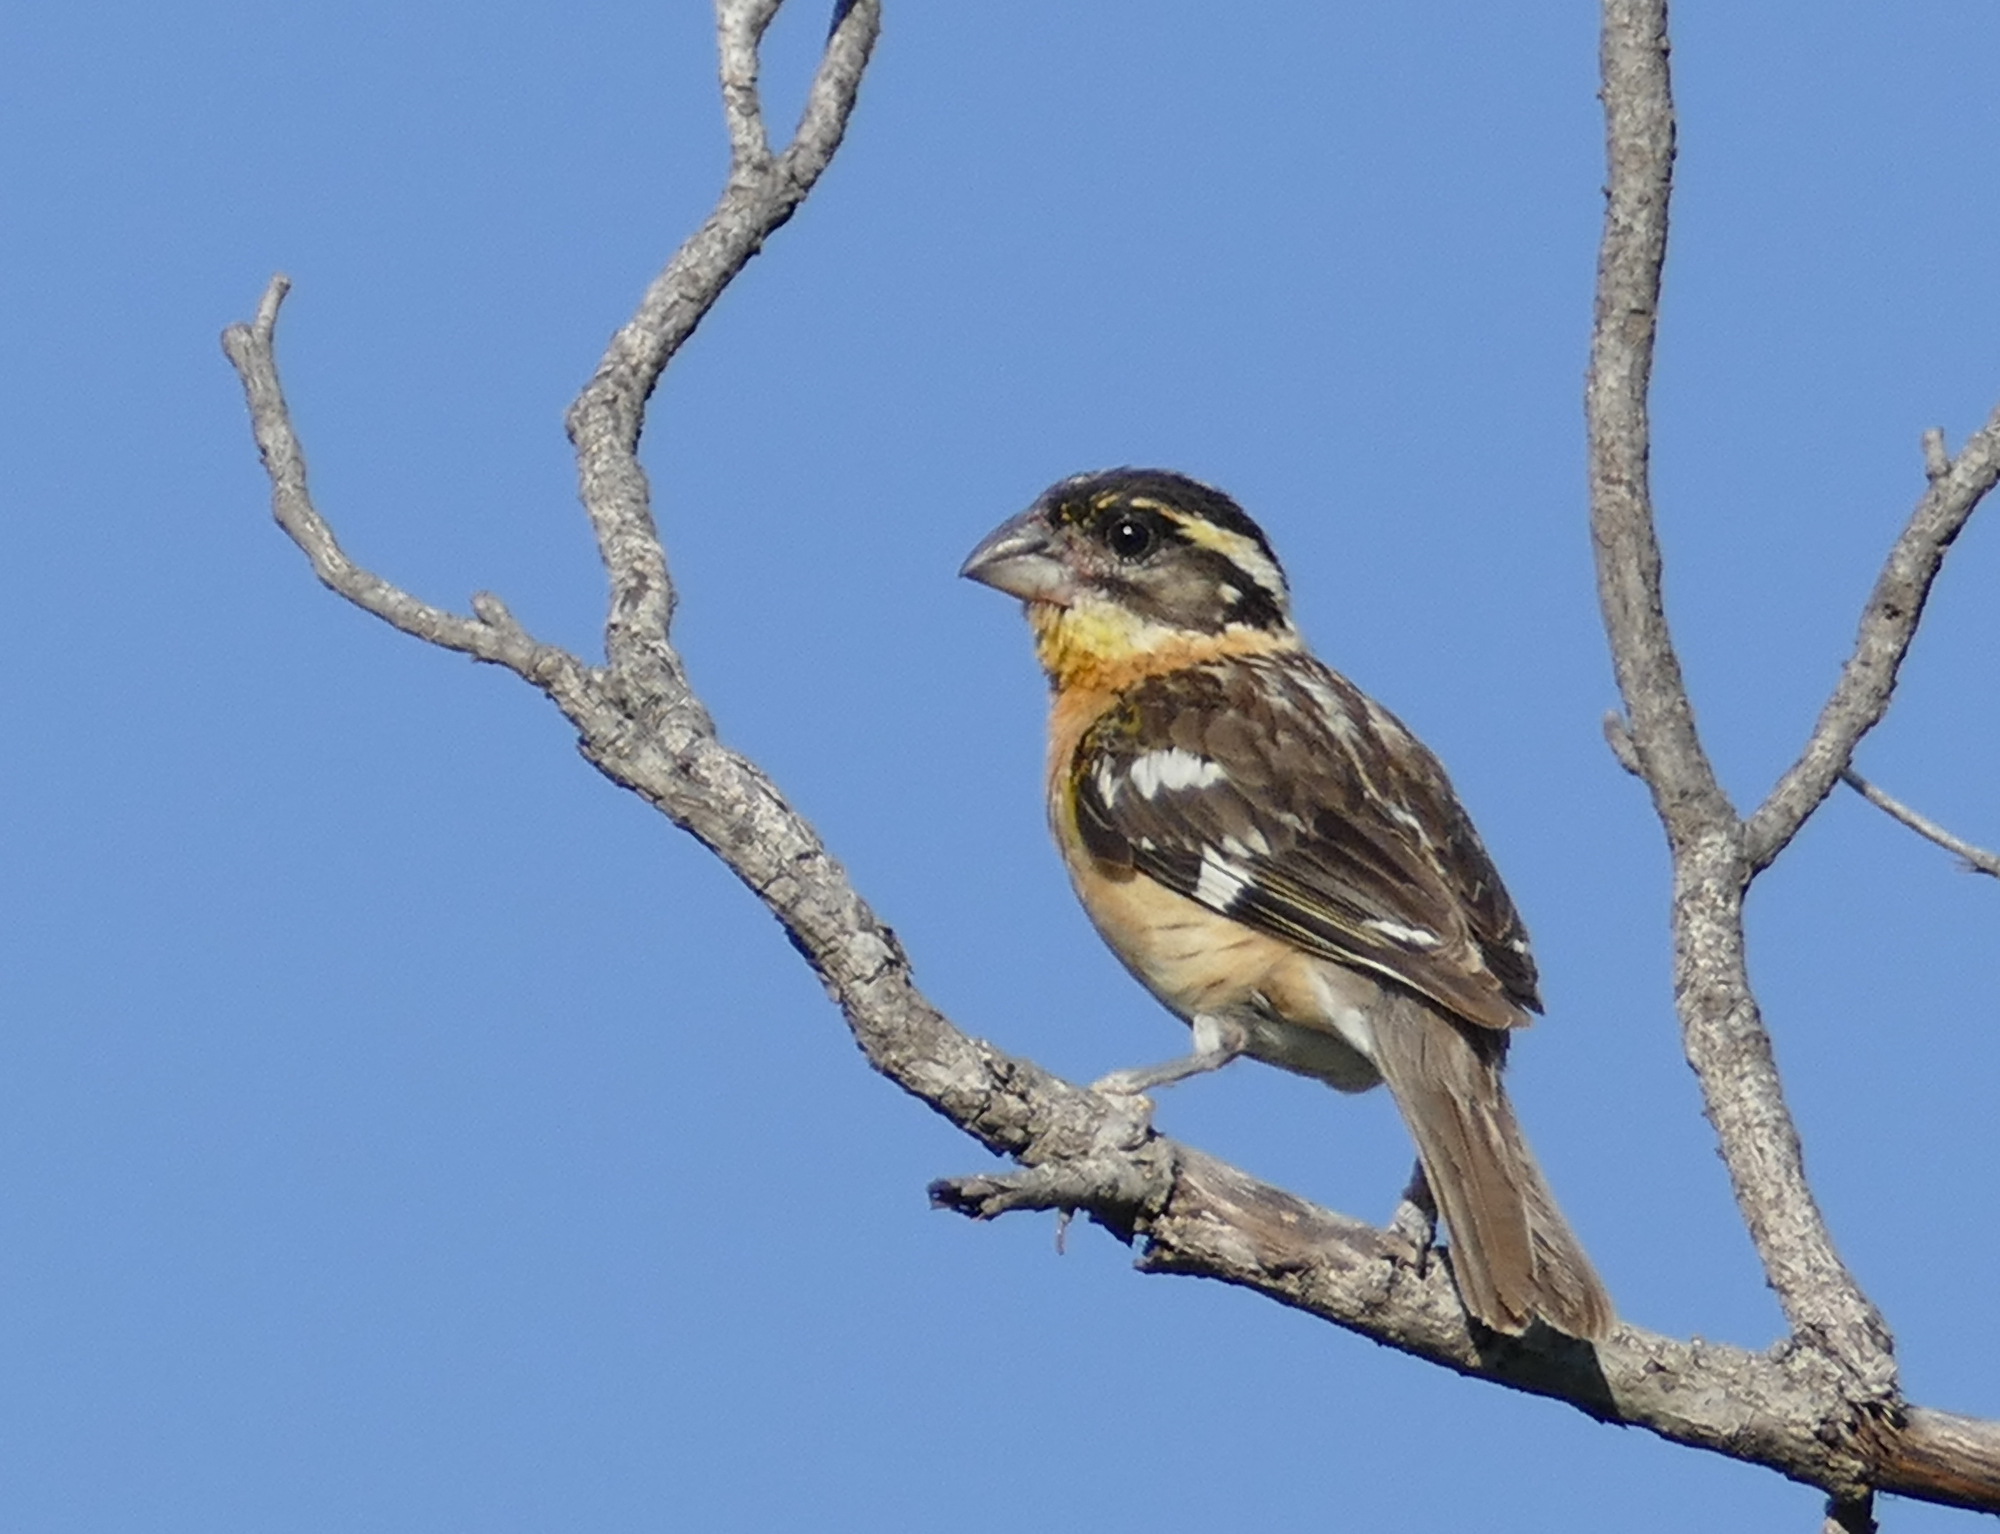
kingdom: Animalia
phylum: Chordata
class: Aves
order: Passeriformes
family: Cardinalidae
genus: Pheucticus
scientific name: Pheucticus melanocephalus
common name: Black-headed grosbeak
